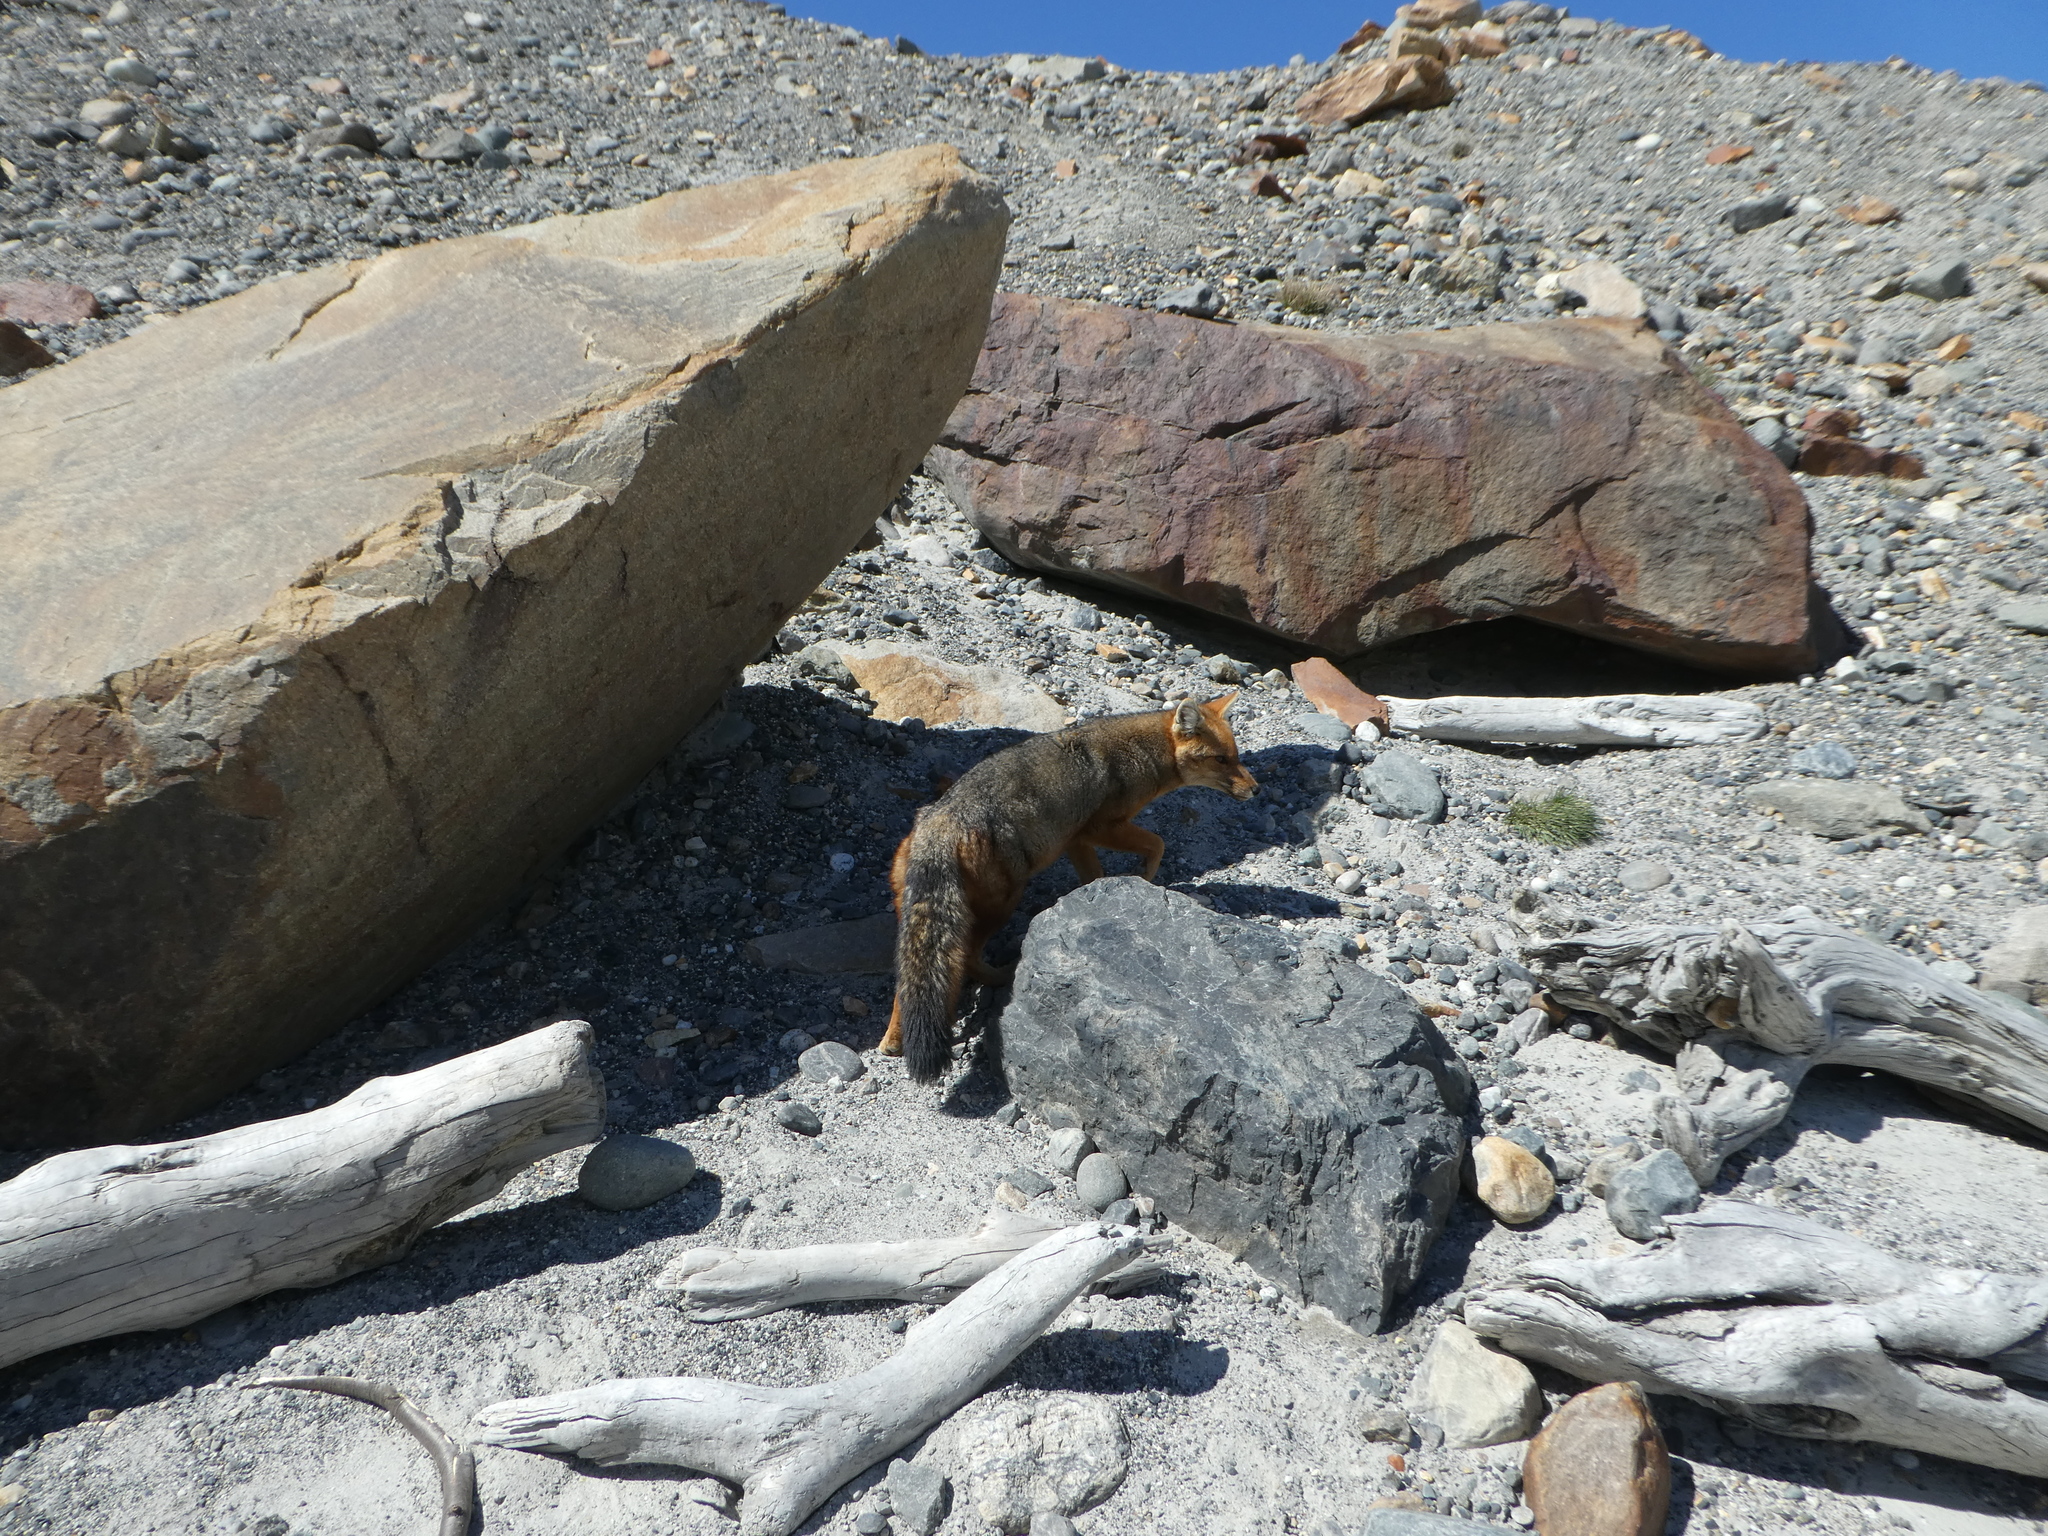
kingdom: Animalia
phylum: Chordata
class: Mammalia
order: Carnivora
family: Canidae
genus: Lycalopex
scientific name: Lycalopex culpaeus
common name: Culpeo
